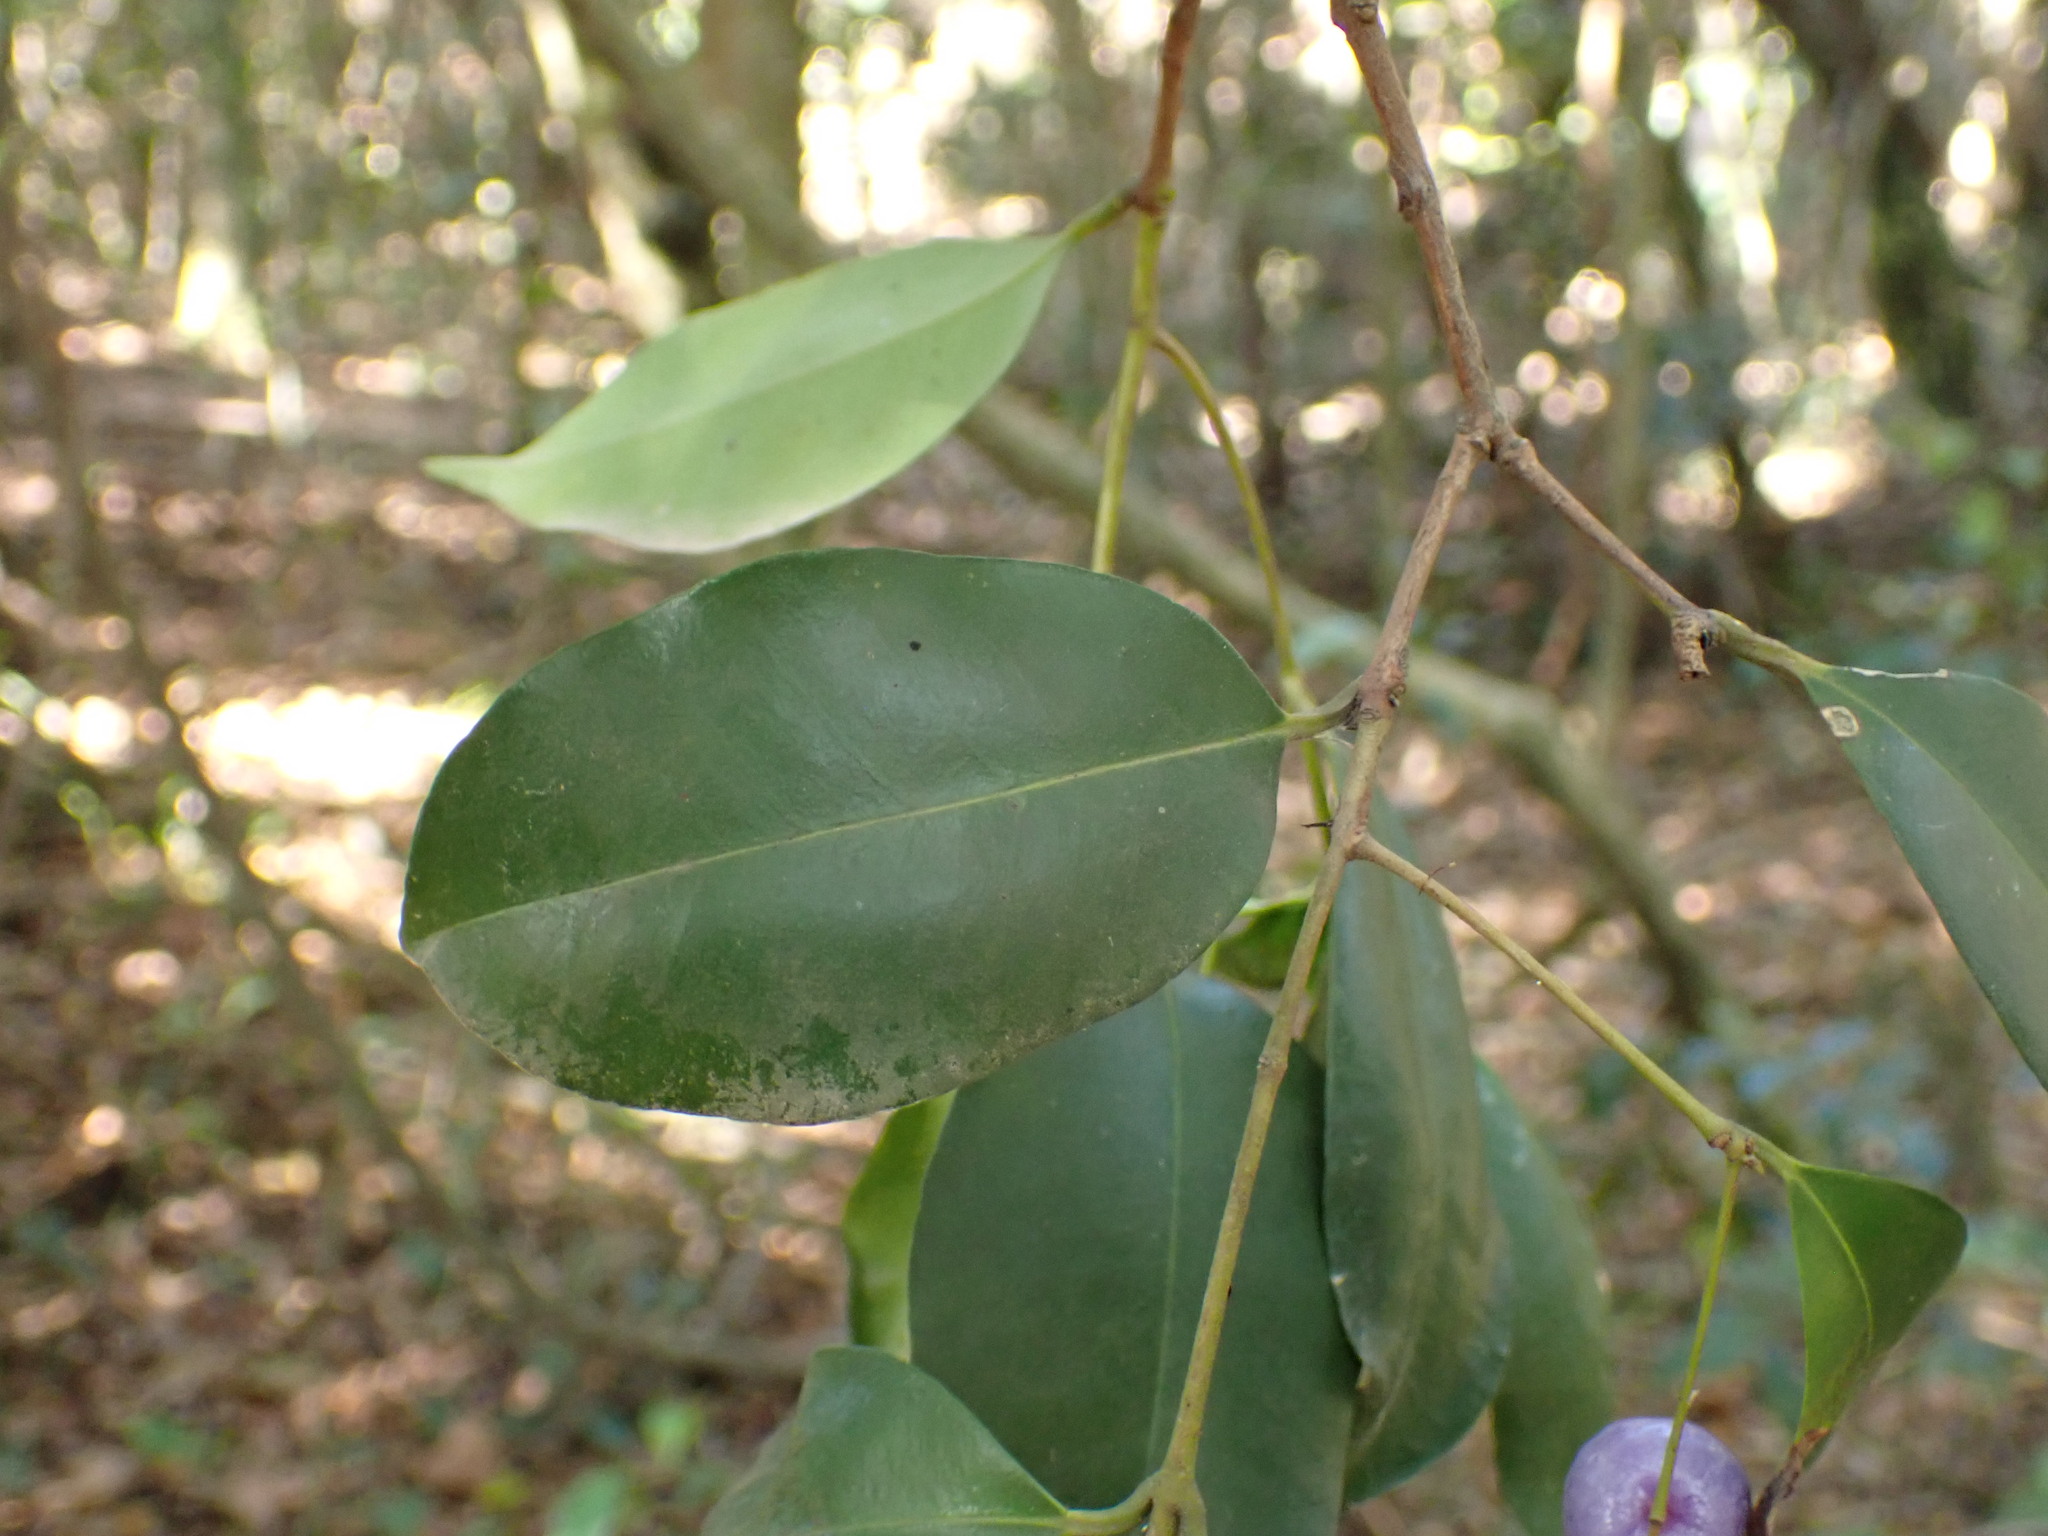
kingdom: Plantae
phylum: Tracheophyta
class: Magnoliopsida
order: Myrtales
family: Myrtaceae
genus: Syzygium
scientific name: Syzygium oleosum
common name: Oily satin-ash
